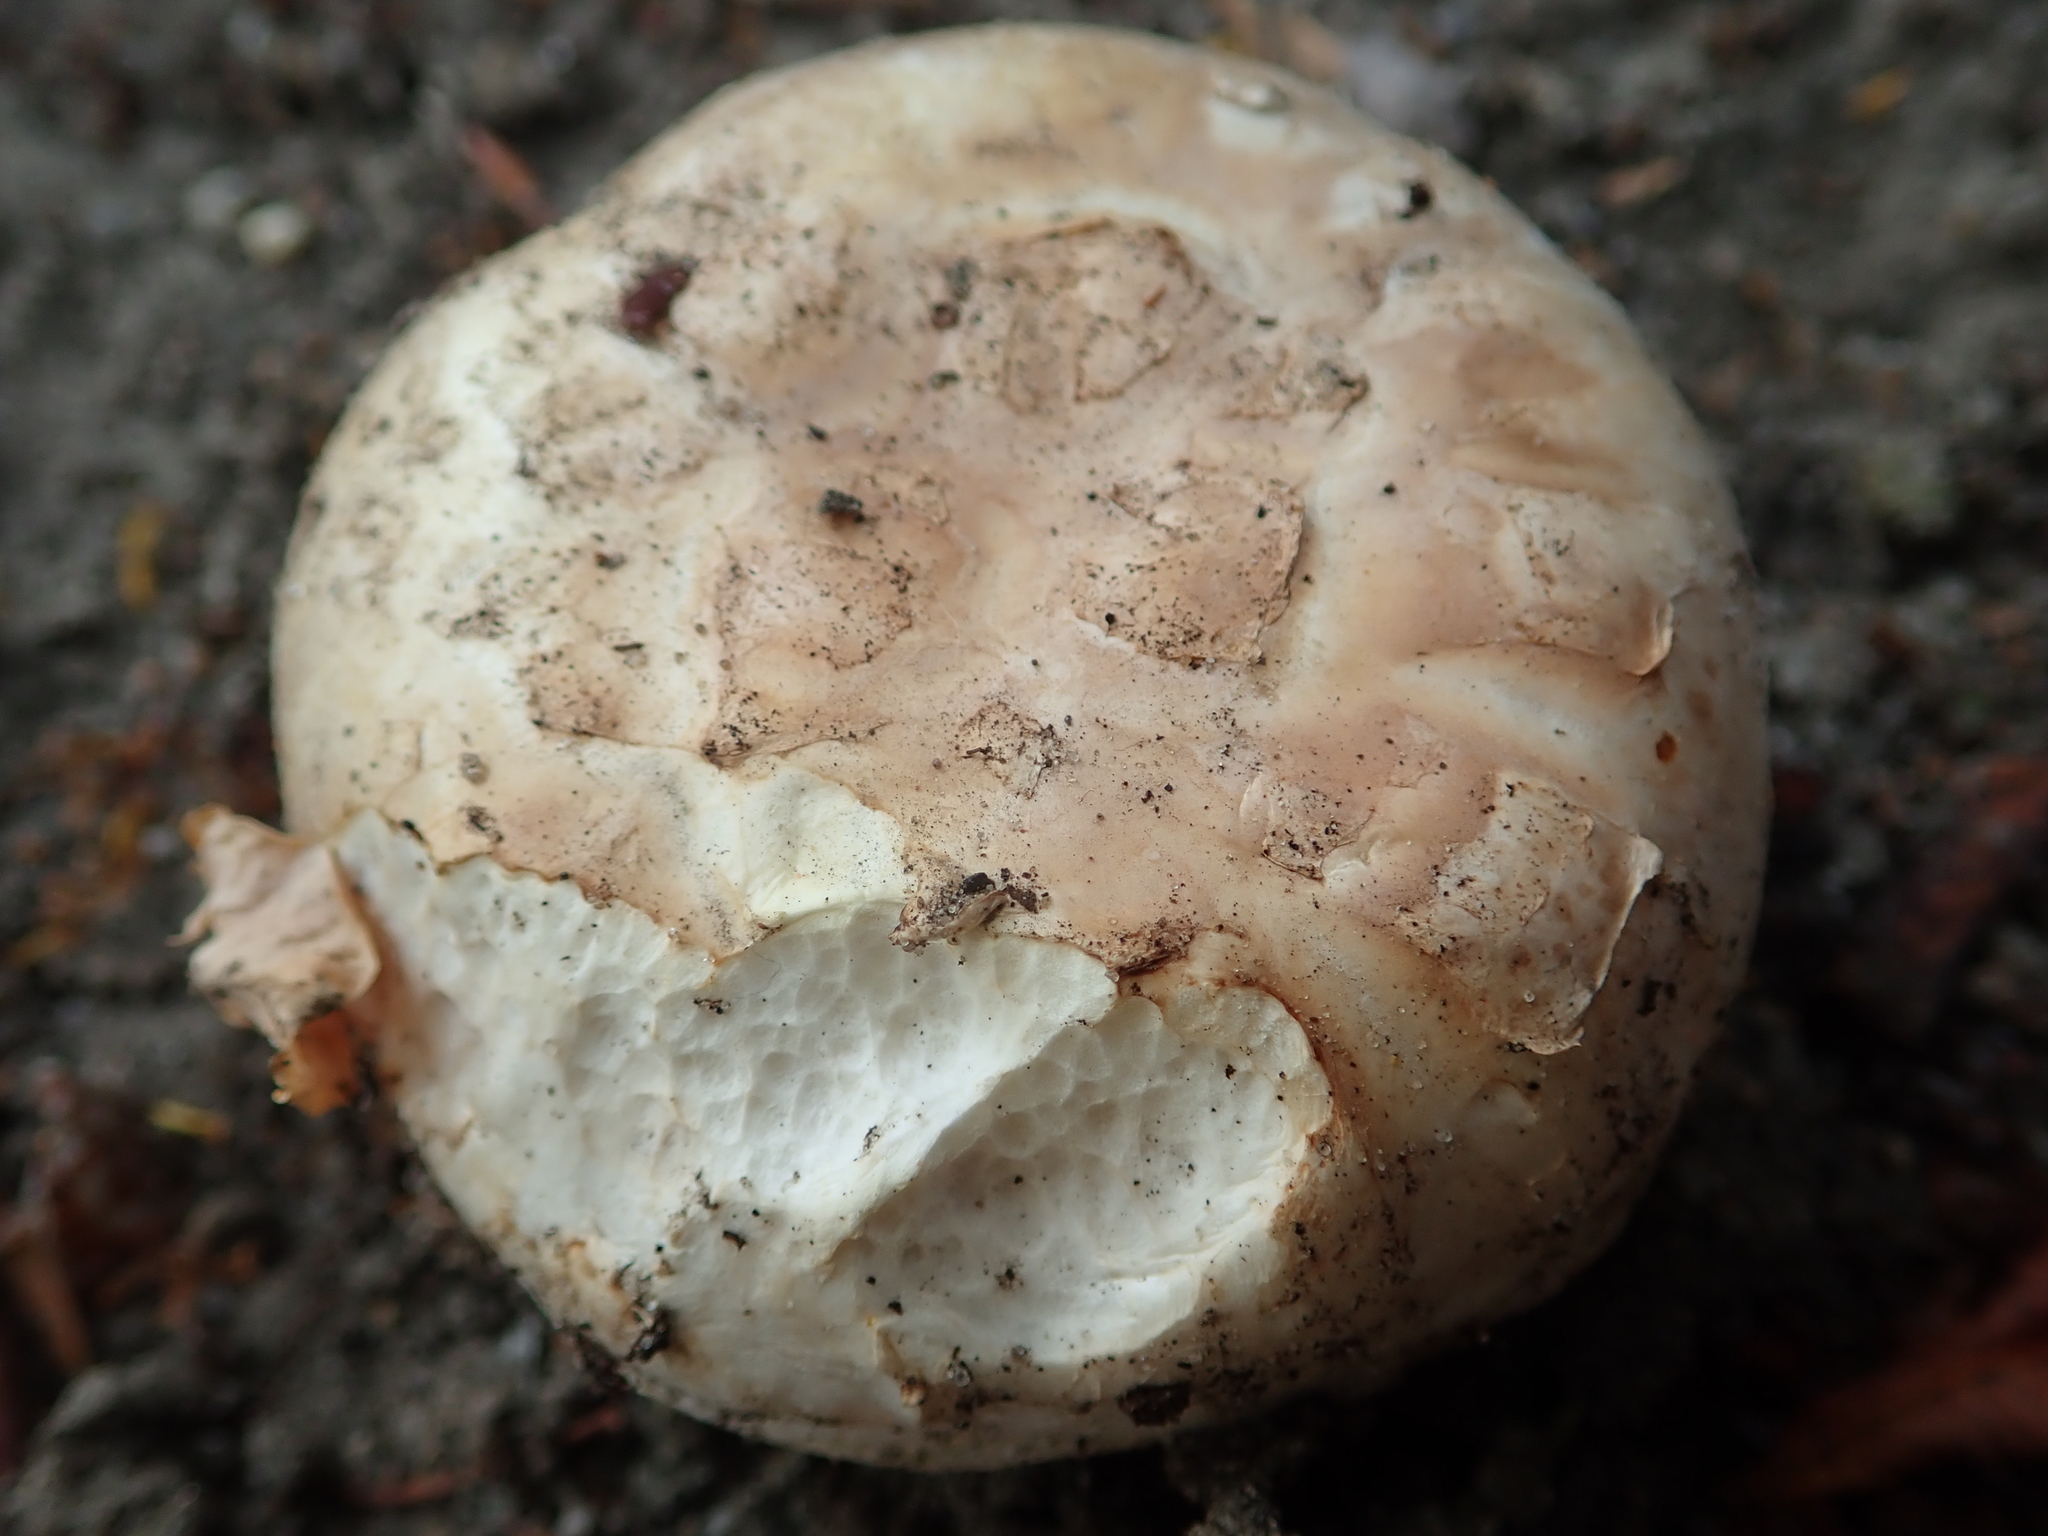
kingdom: Fungi
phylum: Basidiomycota
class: Agaricomycetes
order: Agaricales
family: Agaricaceae
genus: Agaricus
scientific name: Agaricus bitorquis
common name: Pavement mushroom
